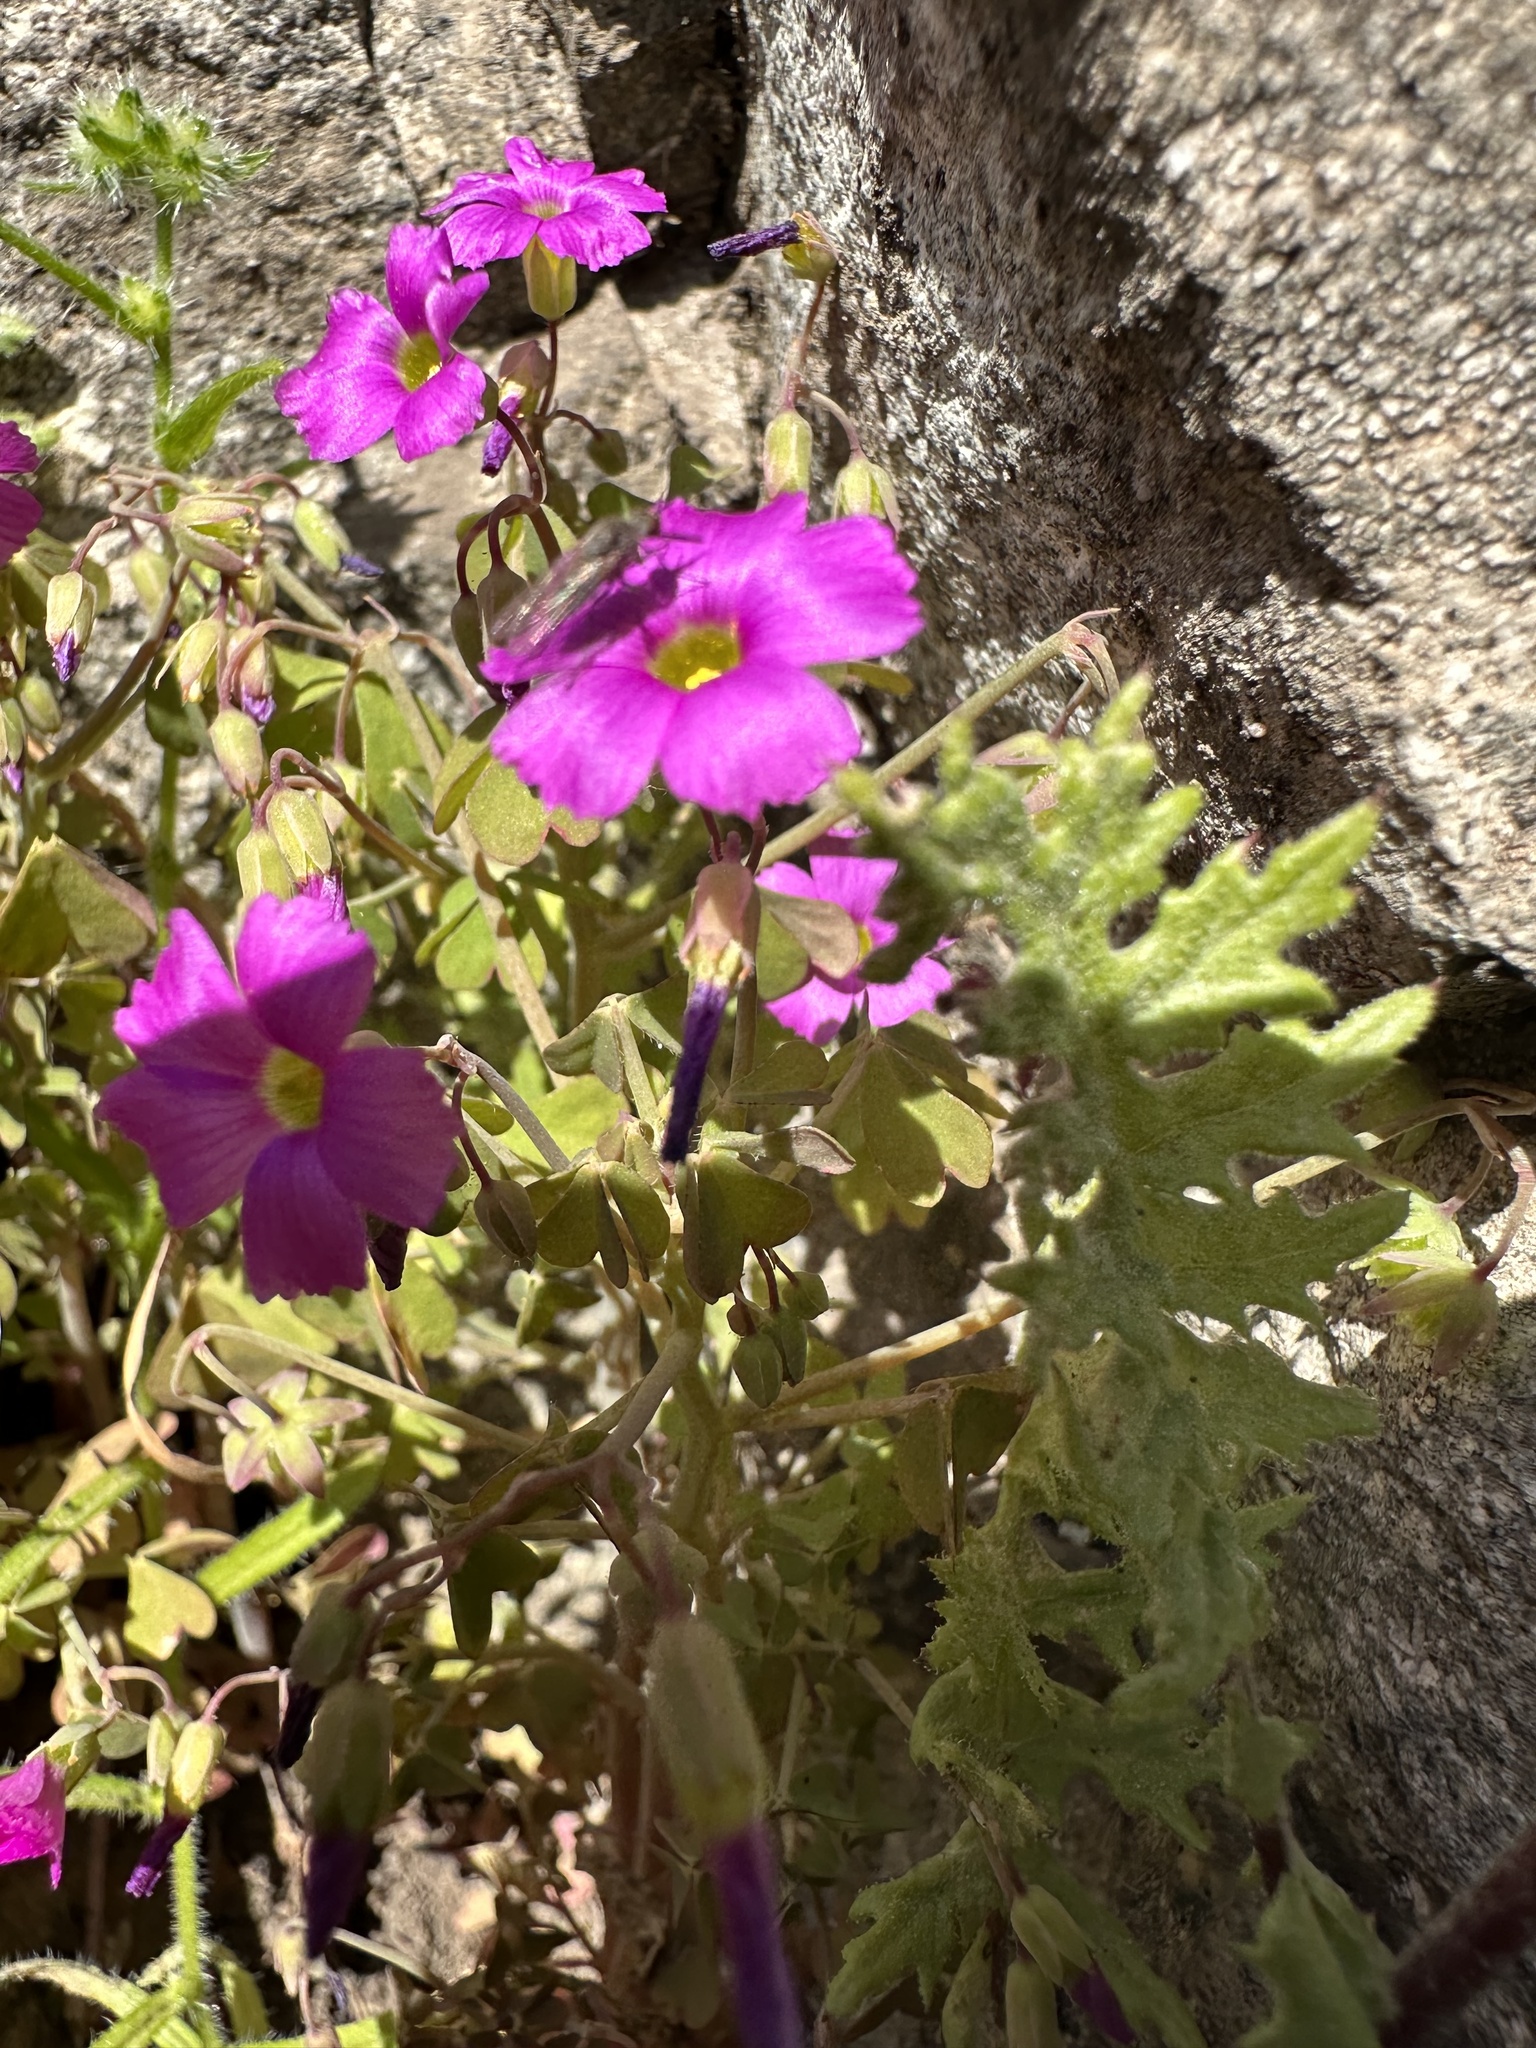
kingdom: Plantae
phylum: Tracheophyta
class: Magnoliopsida
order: Oxalidales
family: Oxalidaceae
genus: Oxalis
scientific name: Oxalis rosea
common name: Annual pink-sorrel
